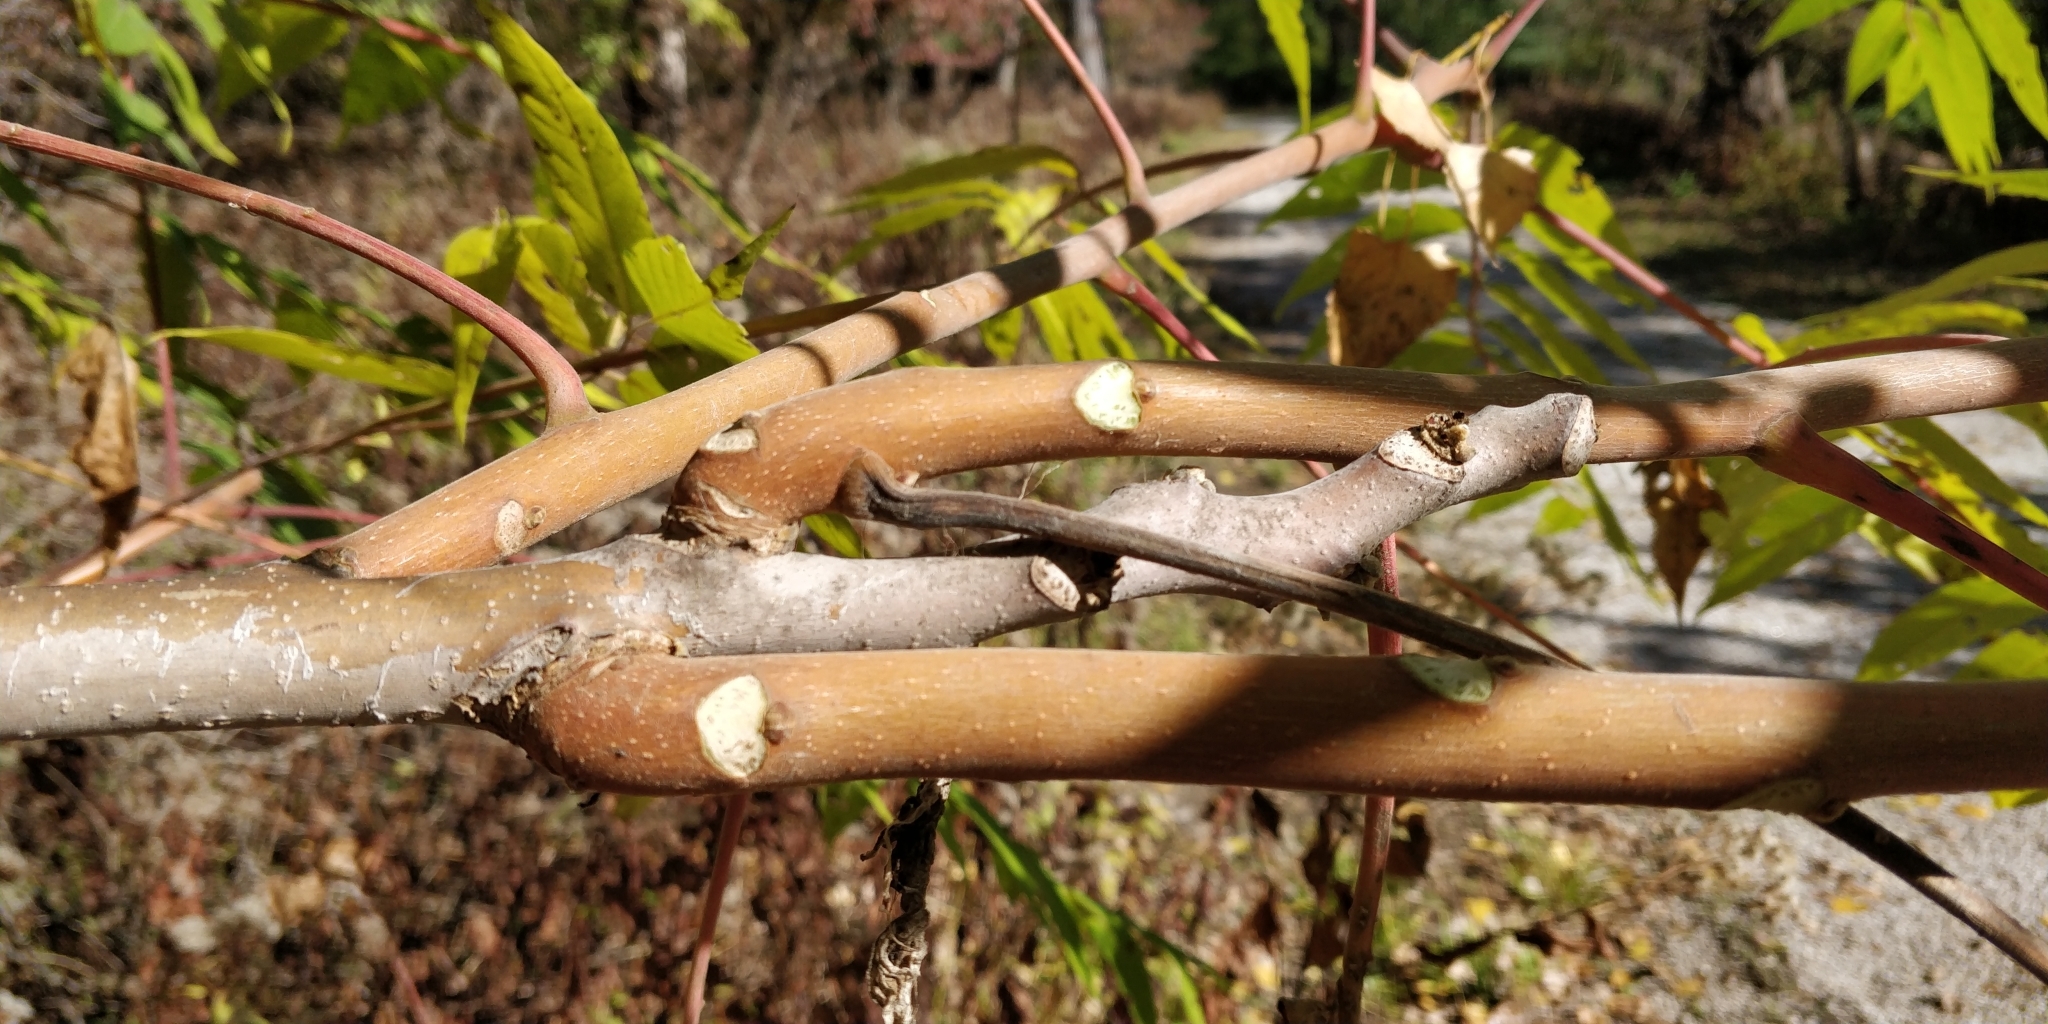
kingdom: Plantae
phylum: Tracheophyta
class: Magnoliopsida
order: Sapindales
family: Simaroubaceae
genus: Ailanthus
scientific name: Ailanthus altissima
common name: Tree-of-heaven
